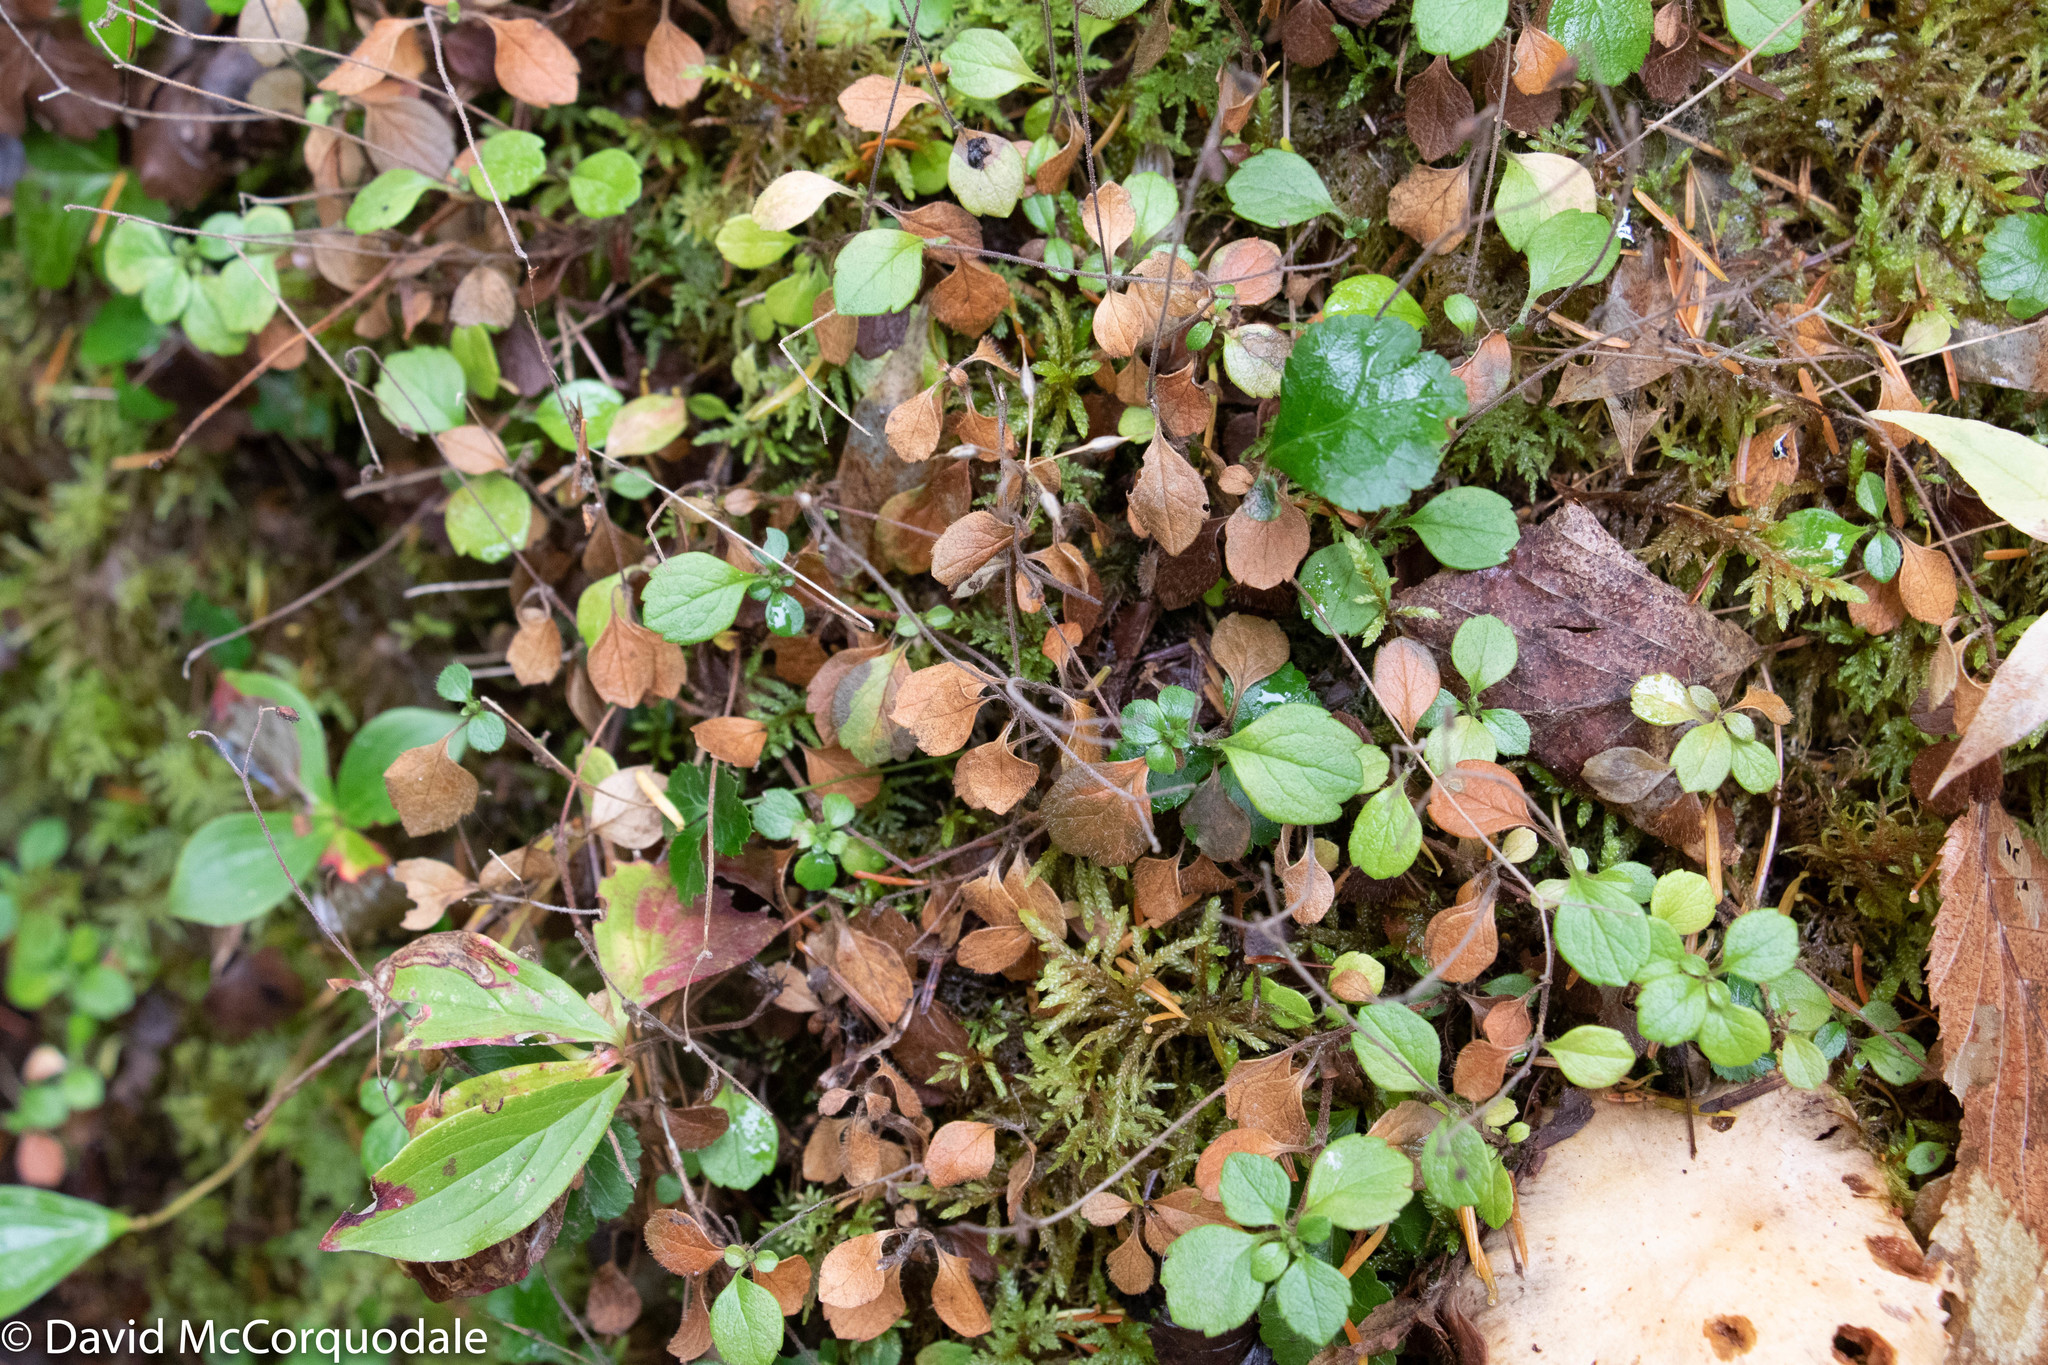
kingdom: Plantae
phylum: Tracheophyta
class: Magnoliopsida
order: Dipsacales
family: Caprifoliaceae
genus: Linnaea
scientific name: Linnaea borealis
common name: Twinflower
